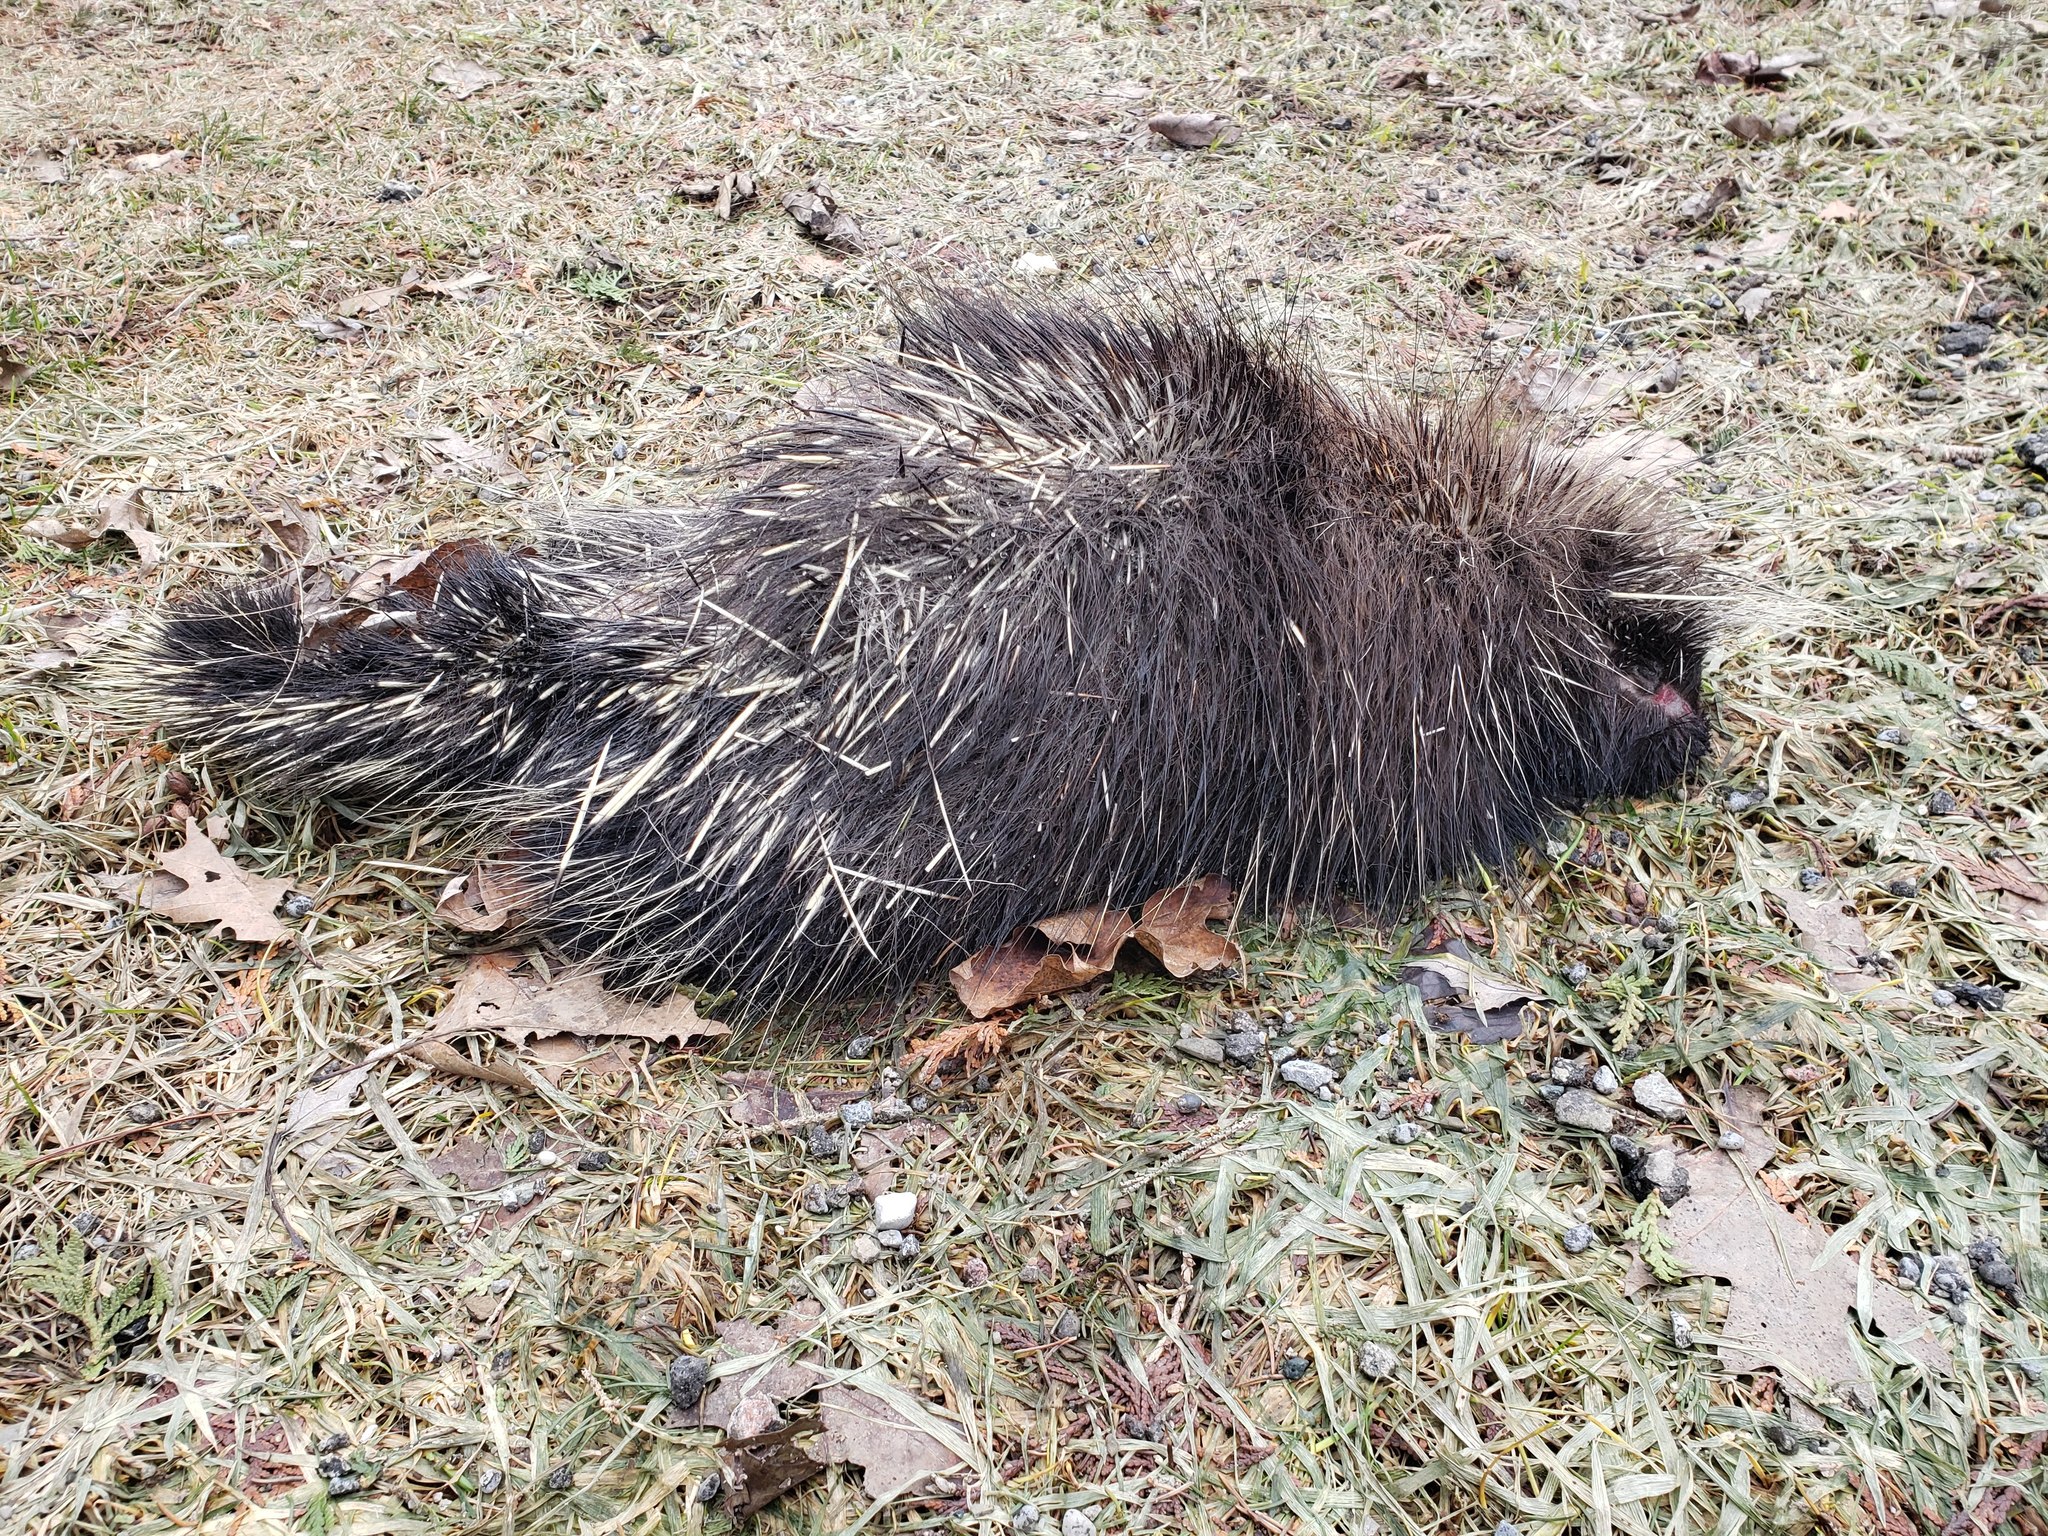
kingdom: Animalia
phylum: Chordata
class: Mammalia
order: Rodentia
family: Erethizontidae
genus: Erethizon
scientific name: Erethizon dorsatus
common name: North american porcupine
